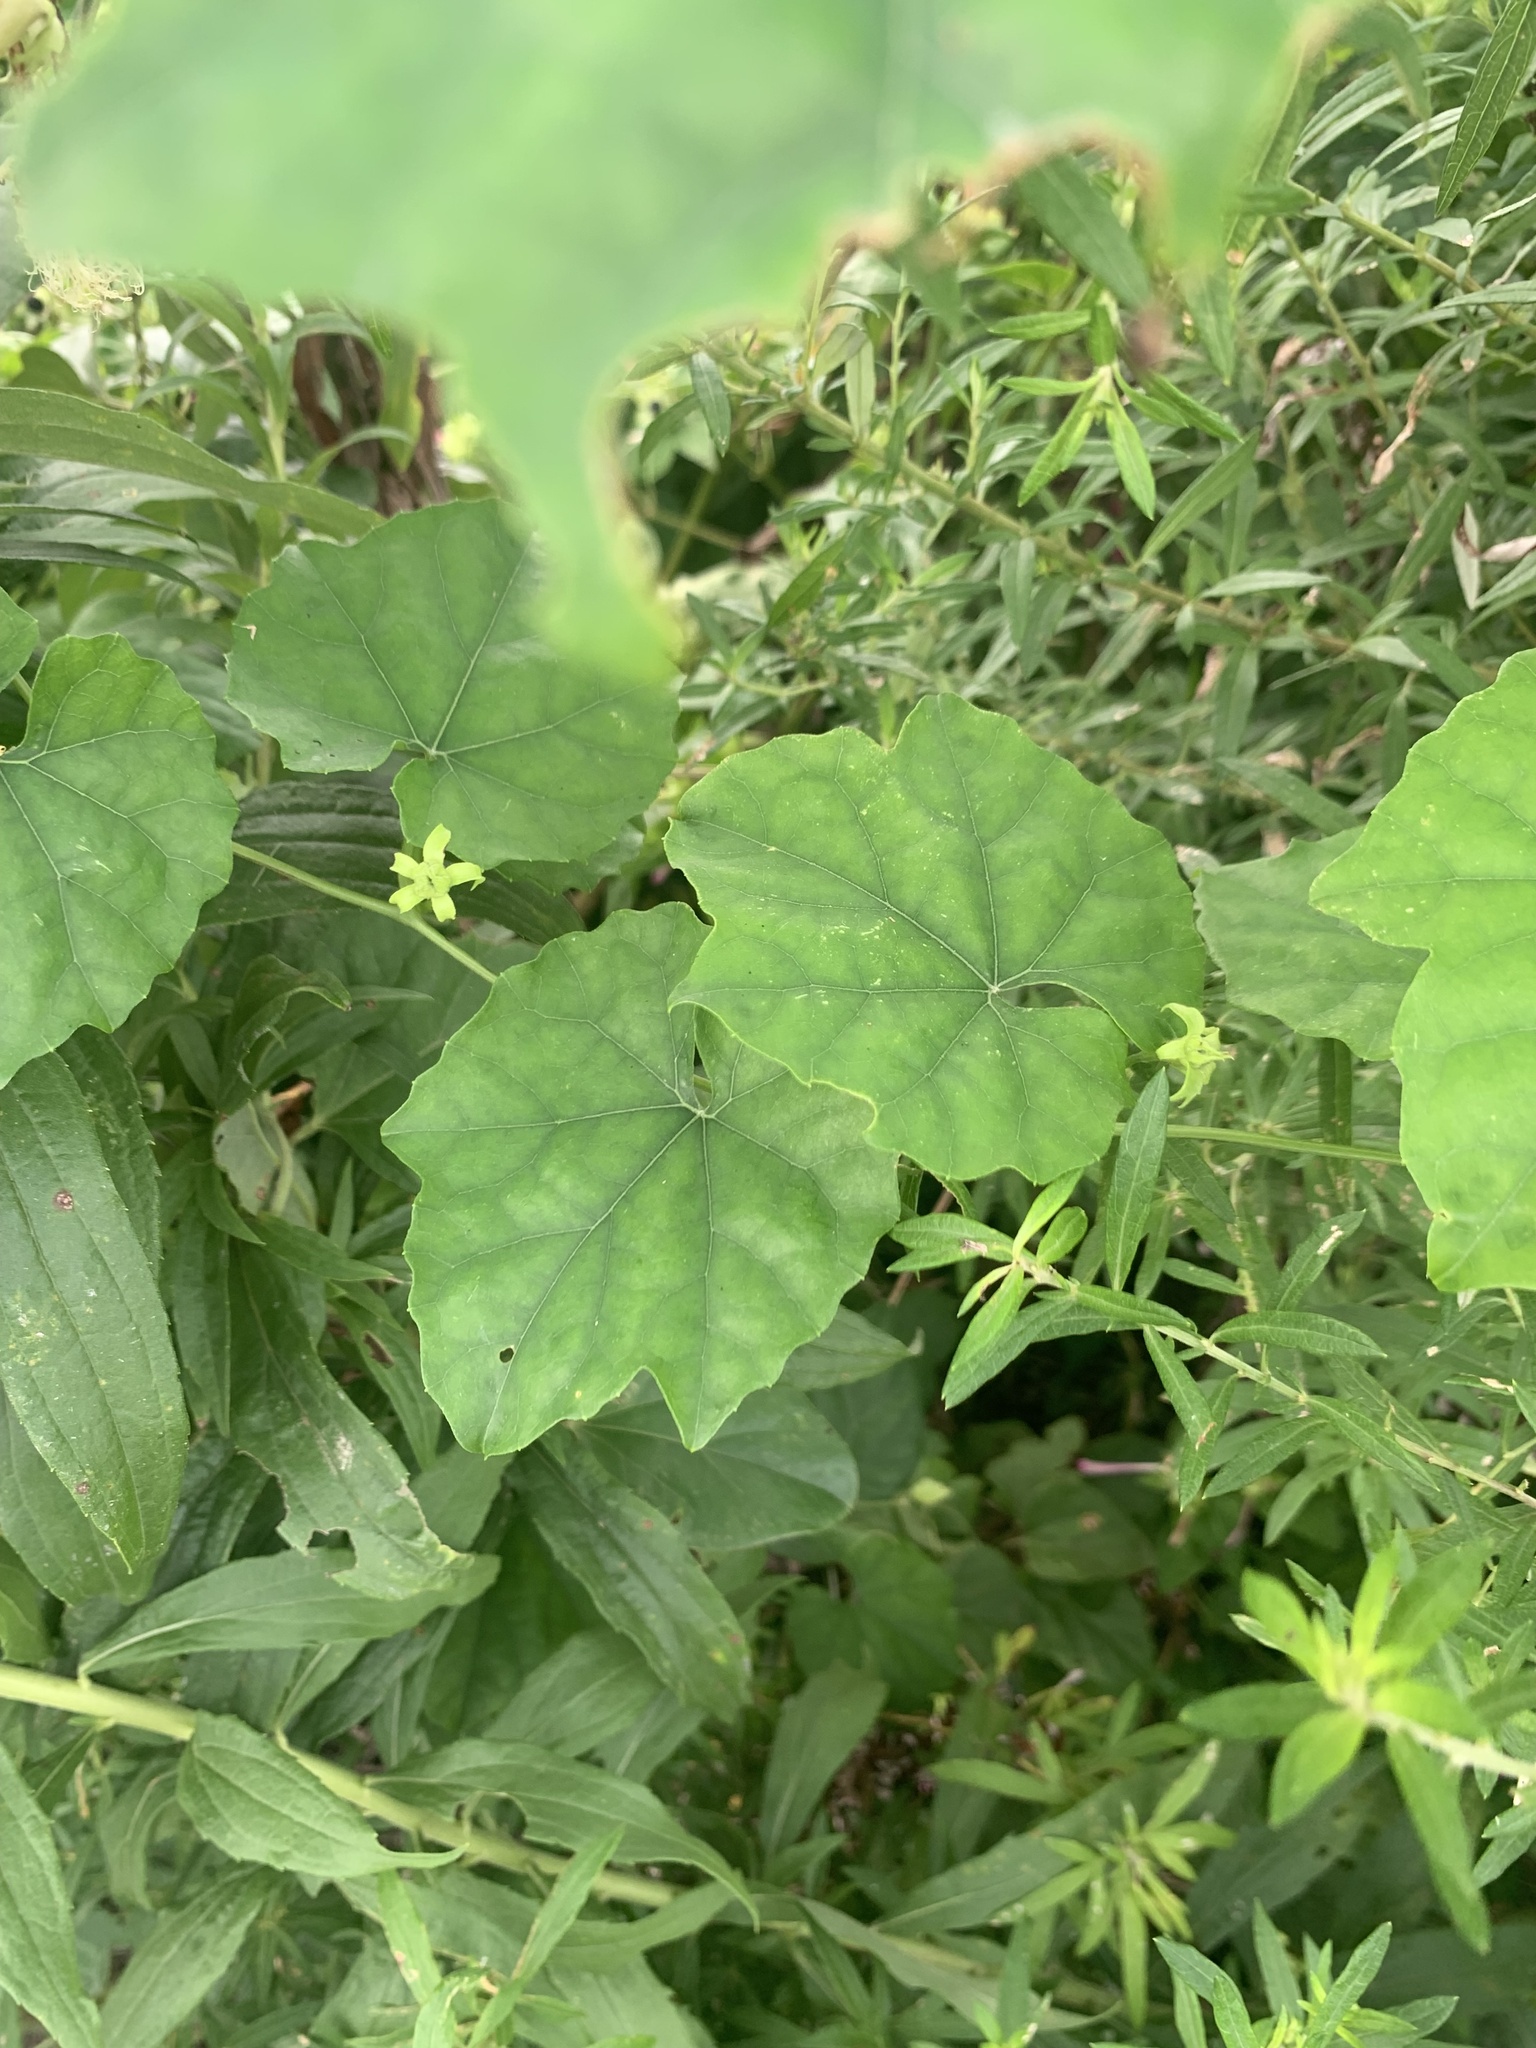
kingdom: Plantae
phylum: Tracheophyta
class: Magnoliopsida
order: Cucurbitales
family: Cucurbitaceae
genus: Trichosanthes
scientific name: Trichosanthes kirilowii
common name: Chinese-cucumber
